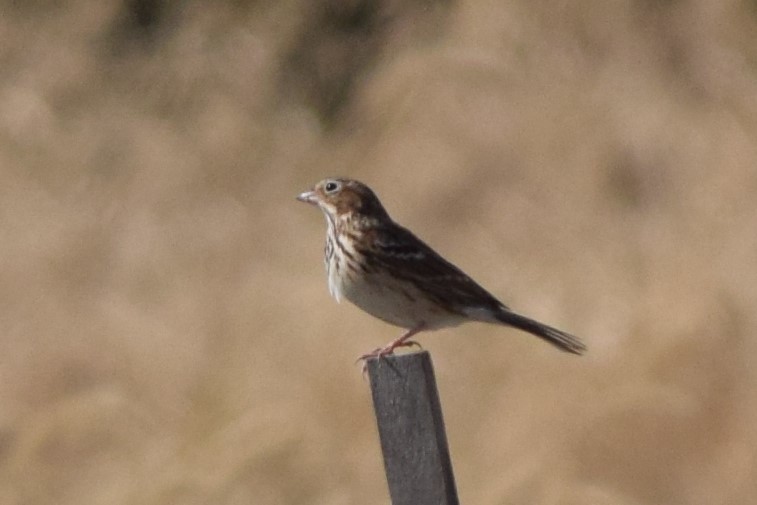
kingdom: Animalia
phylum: Chordata
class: Aves
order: Passeriformes
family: Passerellidae
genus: Pooecetes
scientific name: Pooecetes gramineus
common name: Vesper sparrow
